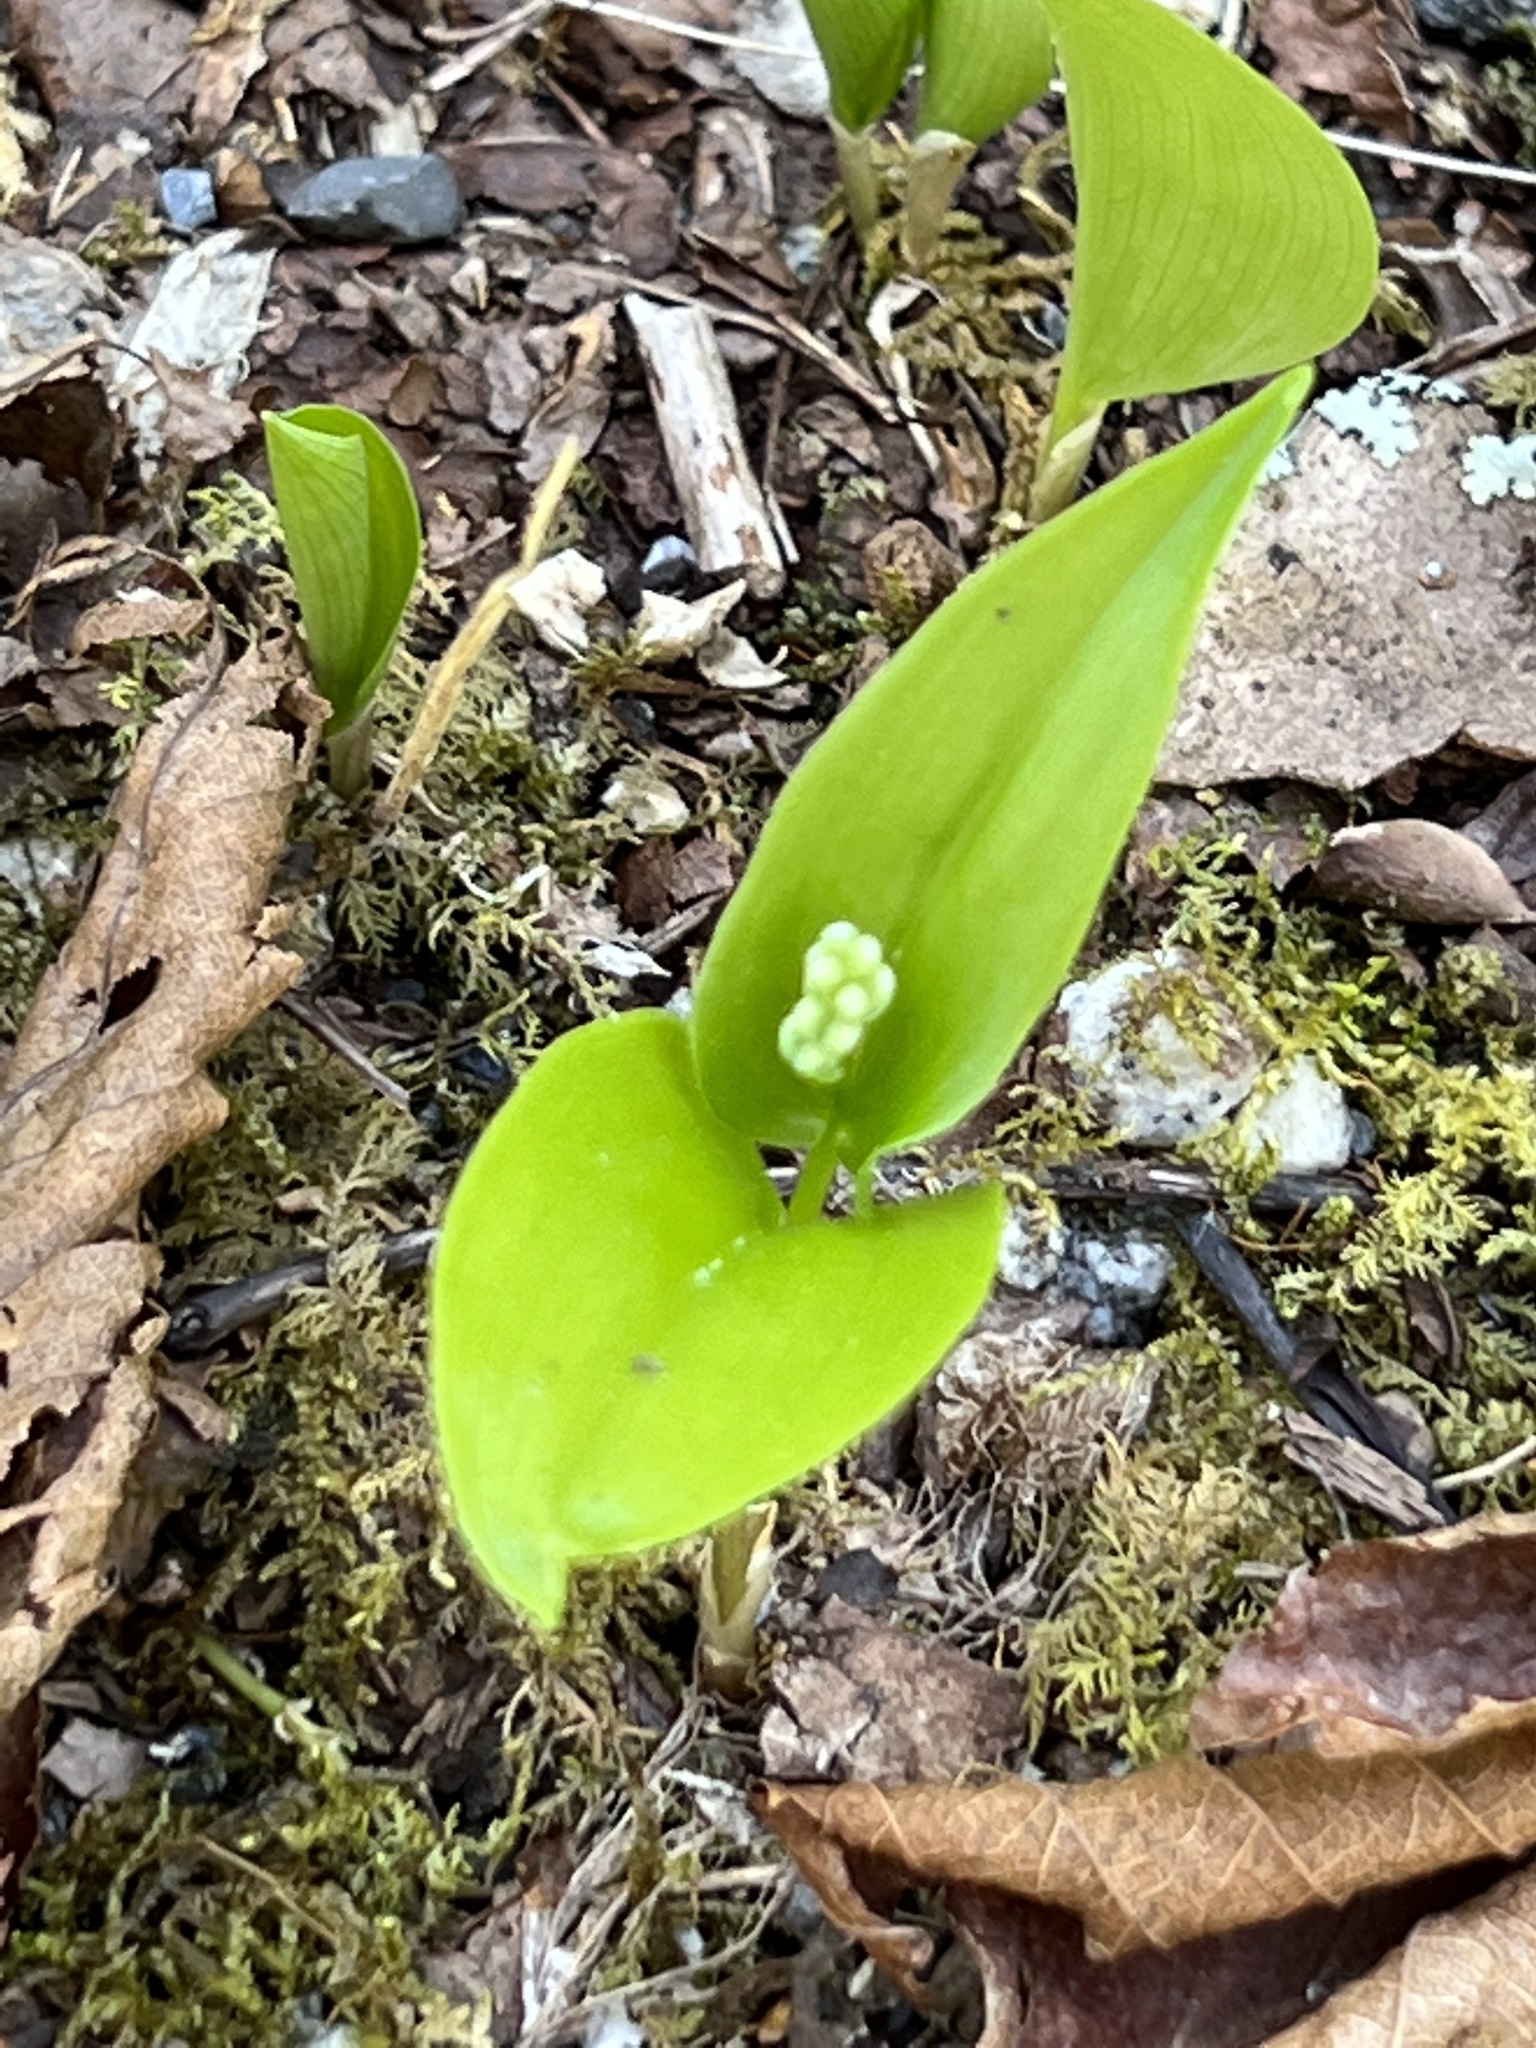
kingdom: Plantae
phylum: Tracheophyta
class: Liliopsida
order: Asparagales
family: Asparagaceae
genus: Maianthemum
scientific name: Maianthemum canadense
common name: False lily-of-the-valley
